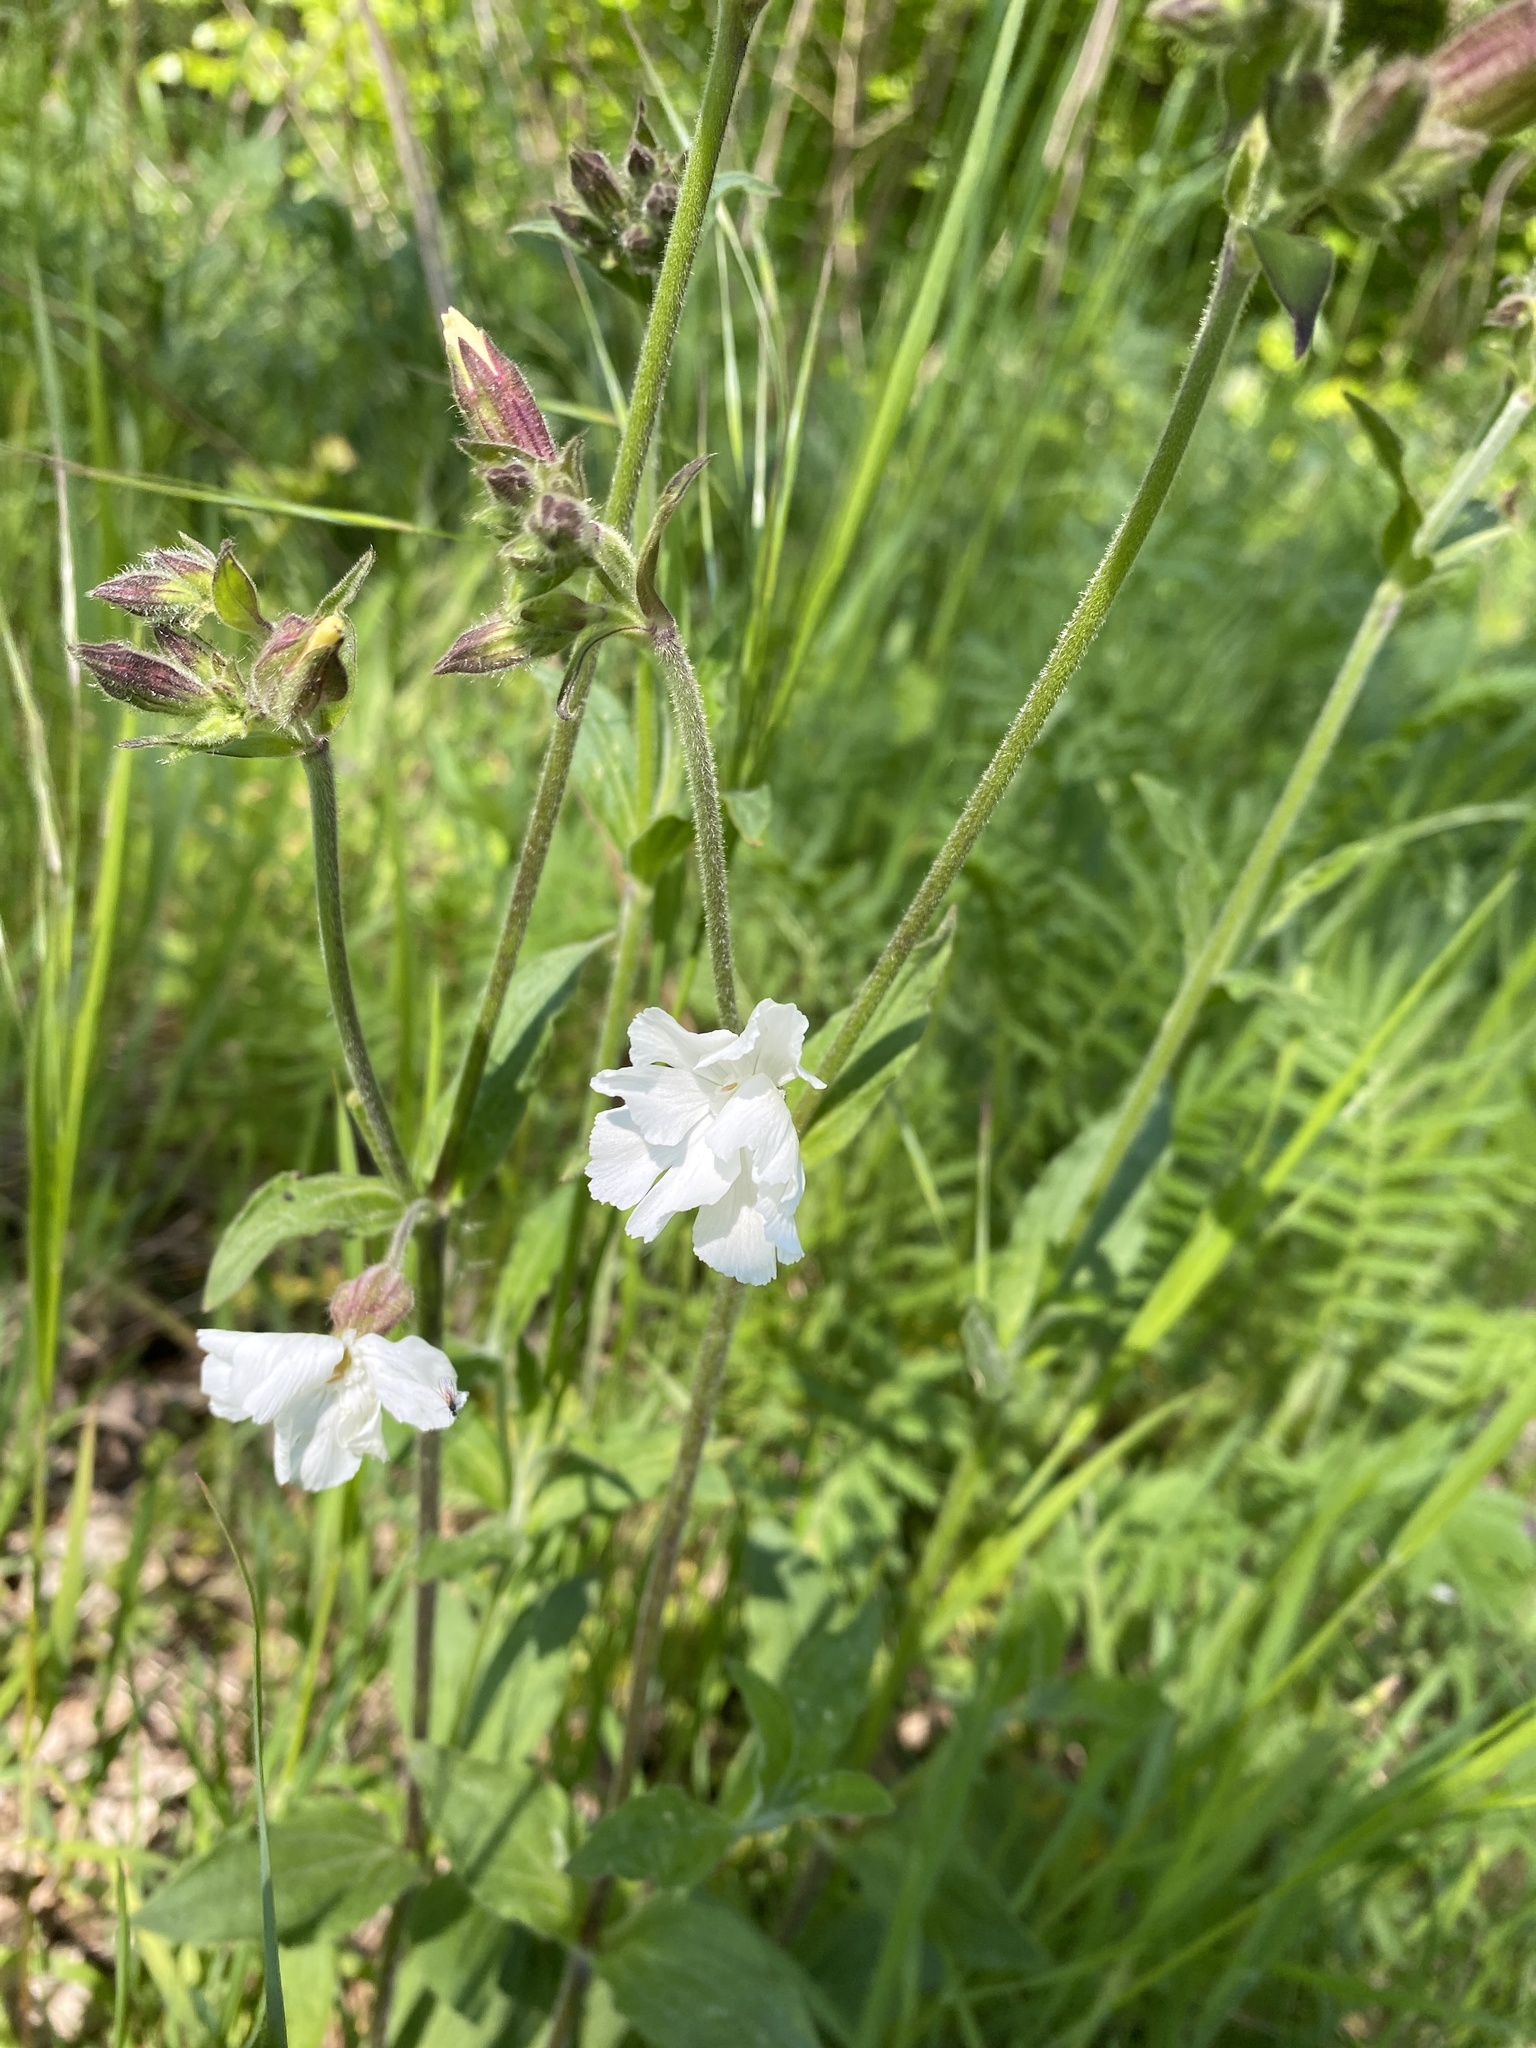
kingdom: Plantae
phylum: Tracheophyta
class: Magnoliopsida
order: Caryophyllales
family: Caryophyllaceae
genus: Silene
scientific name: Silene latifolia
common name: White campion
